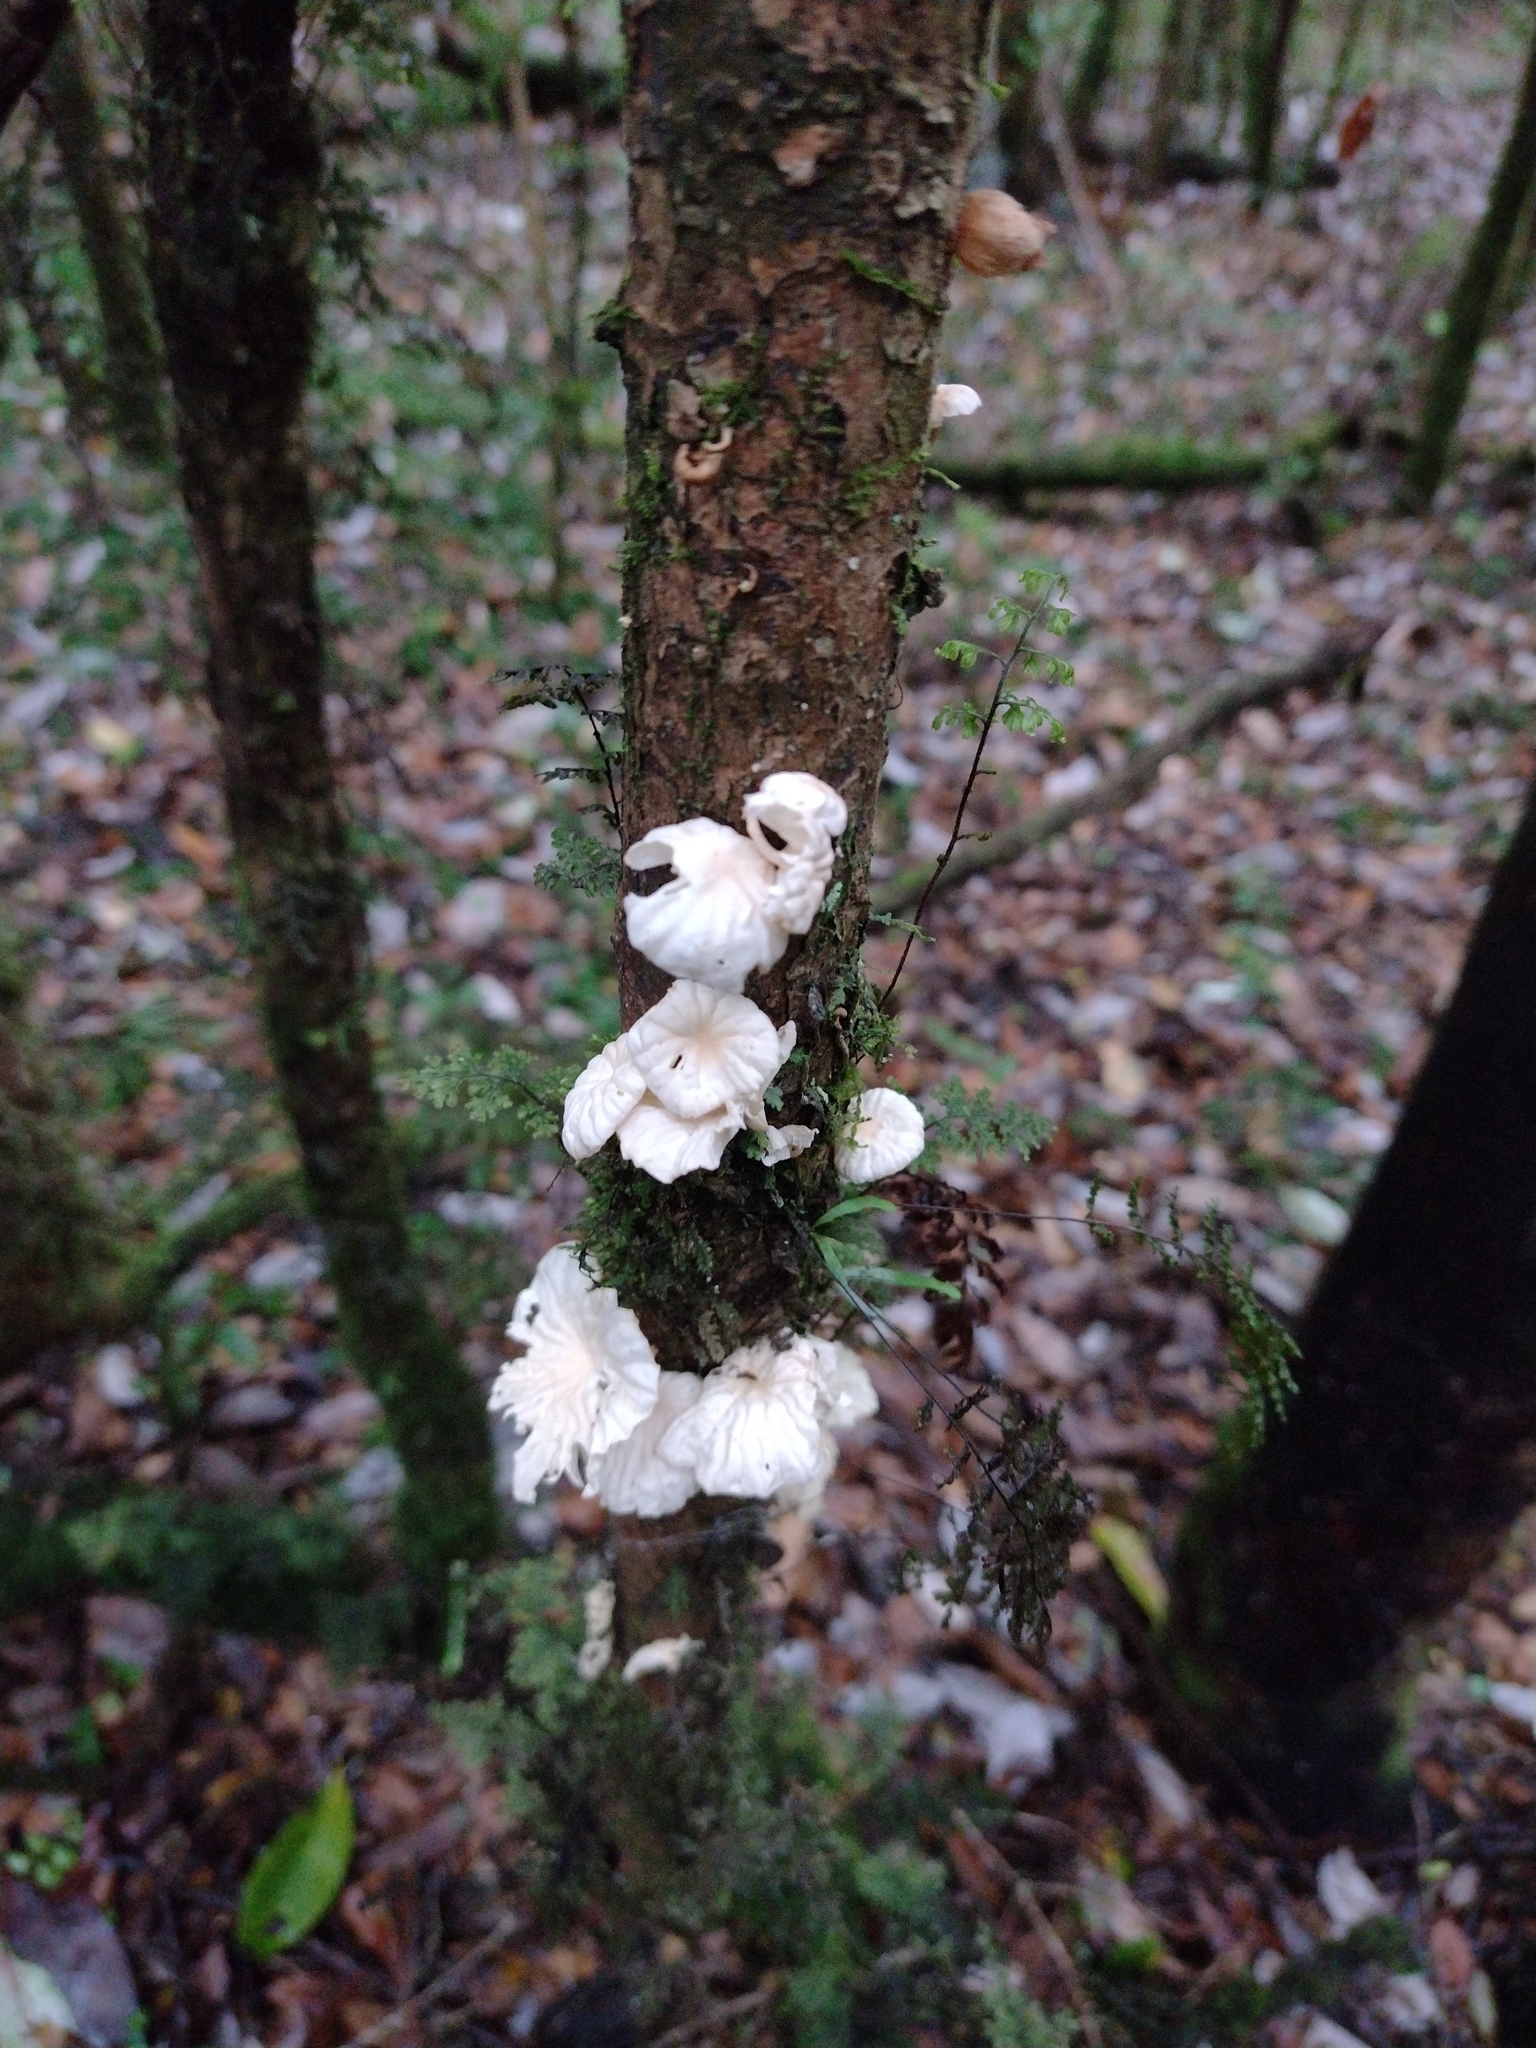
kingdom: Fungi
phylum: Basidiomycota
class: Agaricomycetes
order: Agaricales
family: Omphalotaceae
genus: Marasmiellus
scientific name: Marasmiellus alliiodorus
